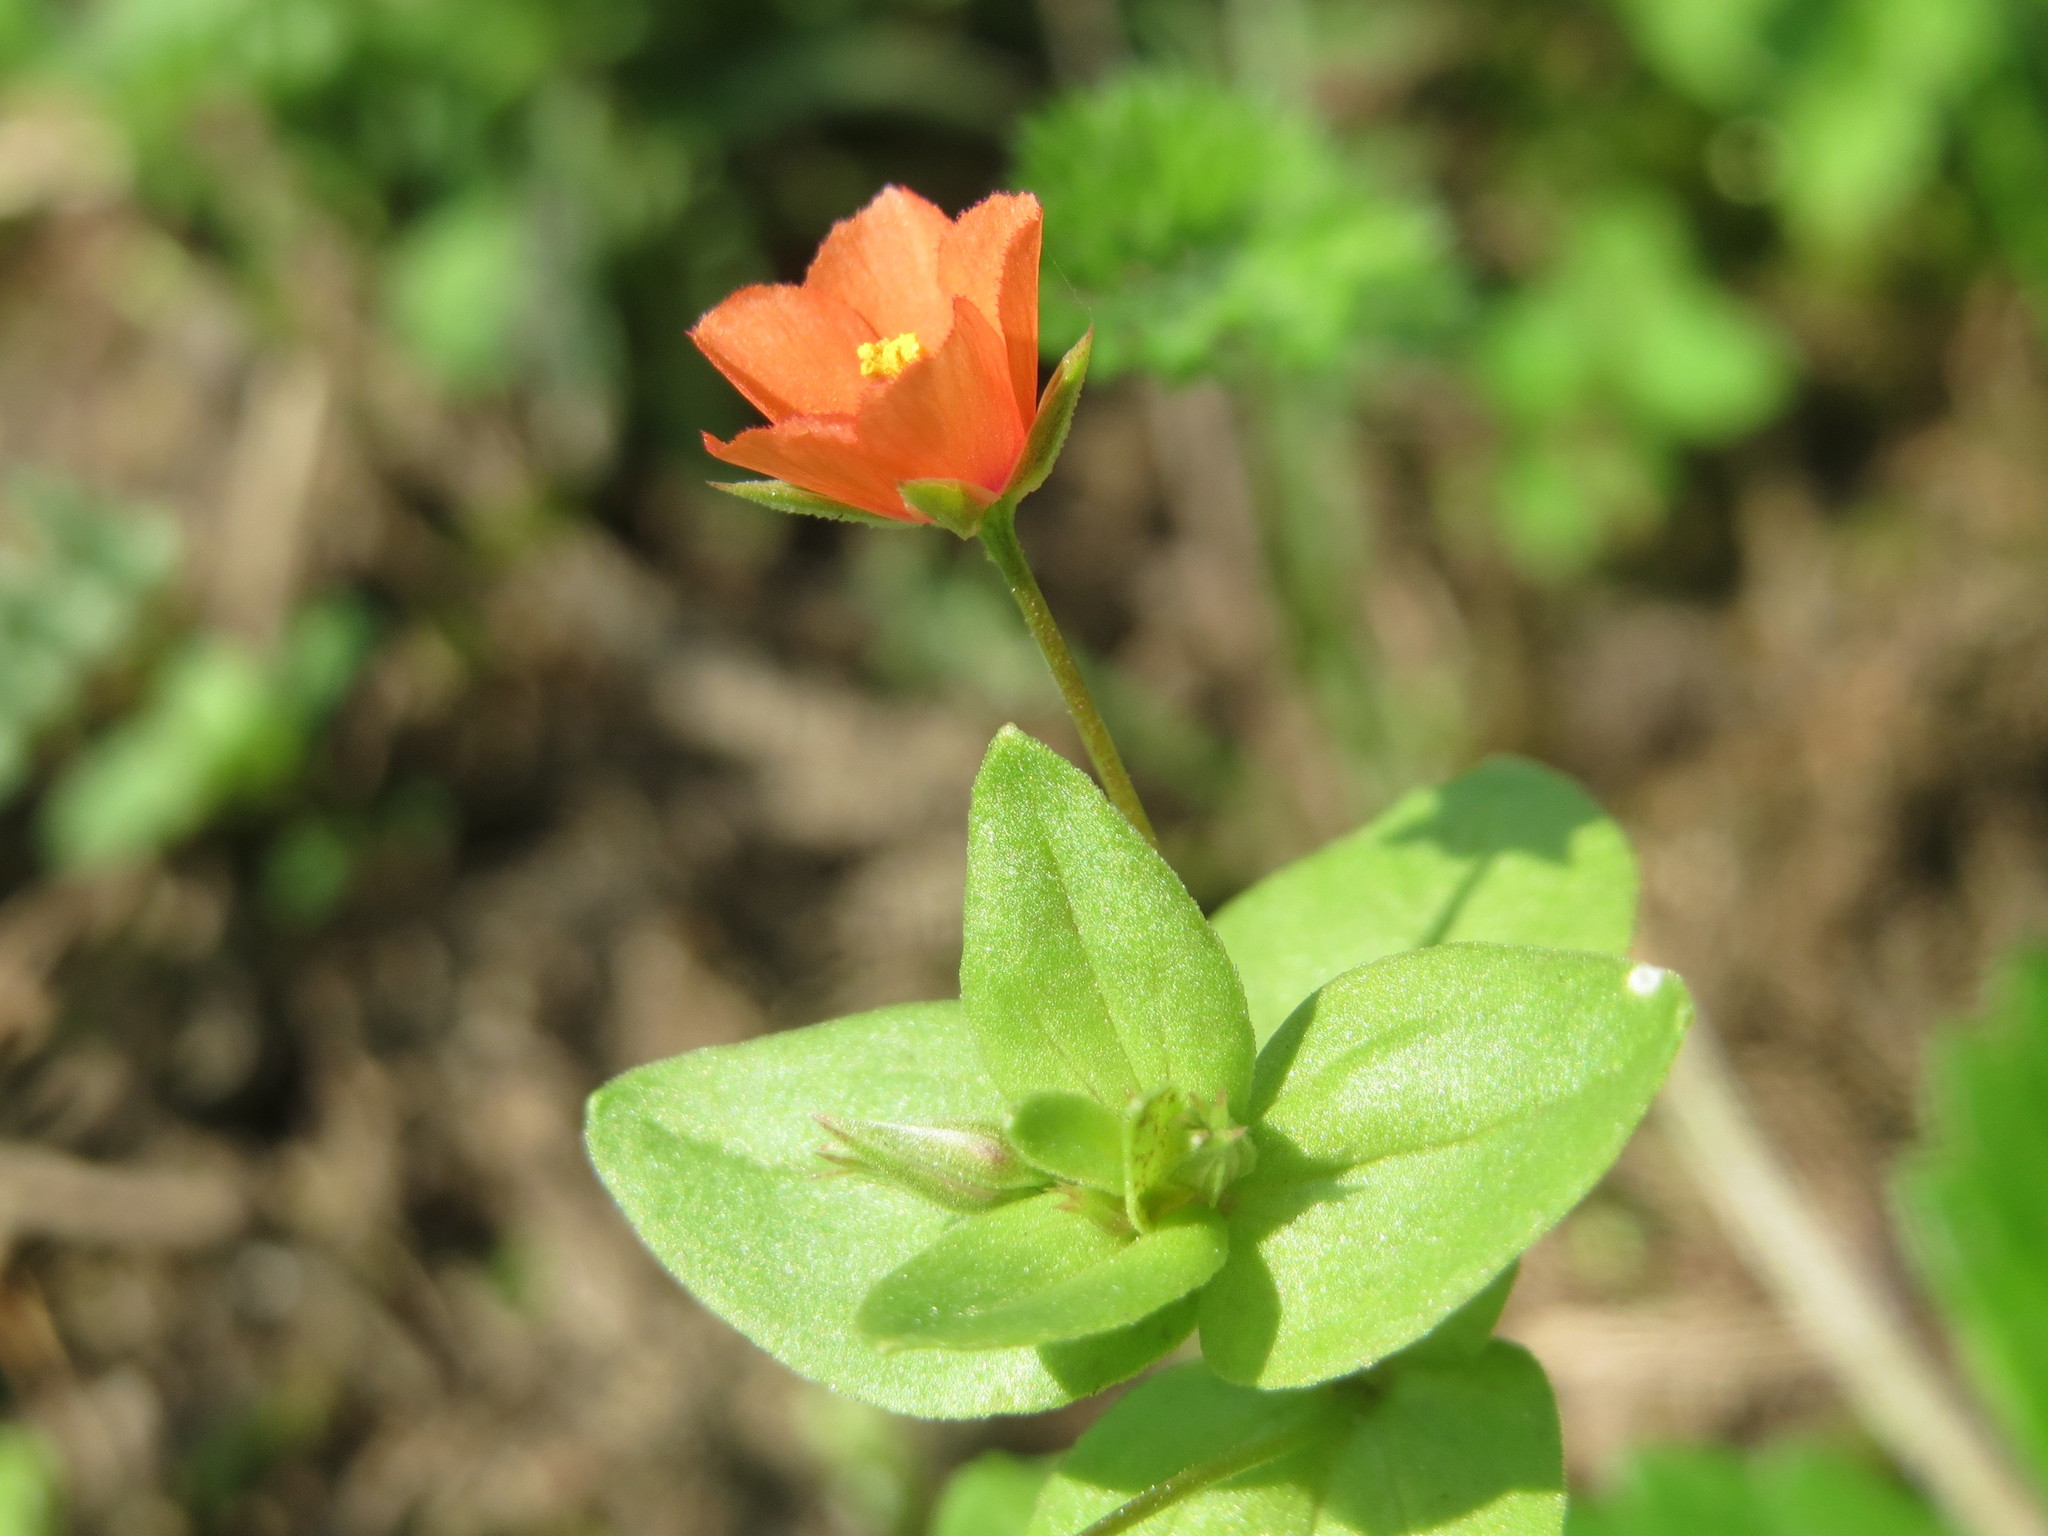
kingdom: Plantae
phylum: Tracheophyta
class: Magnoliopsida
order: Ericales
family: Primulaceae
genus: Lysimachia
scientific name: Lysimachia arvensis
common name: Scarlet pimpernel
